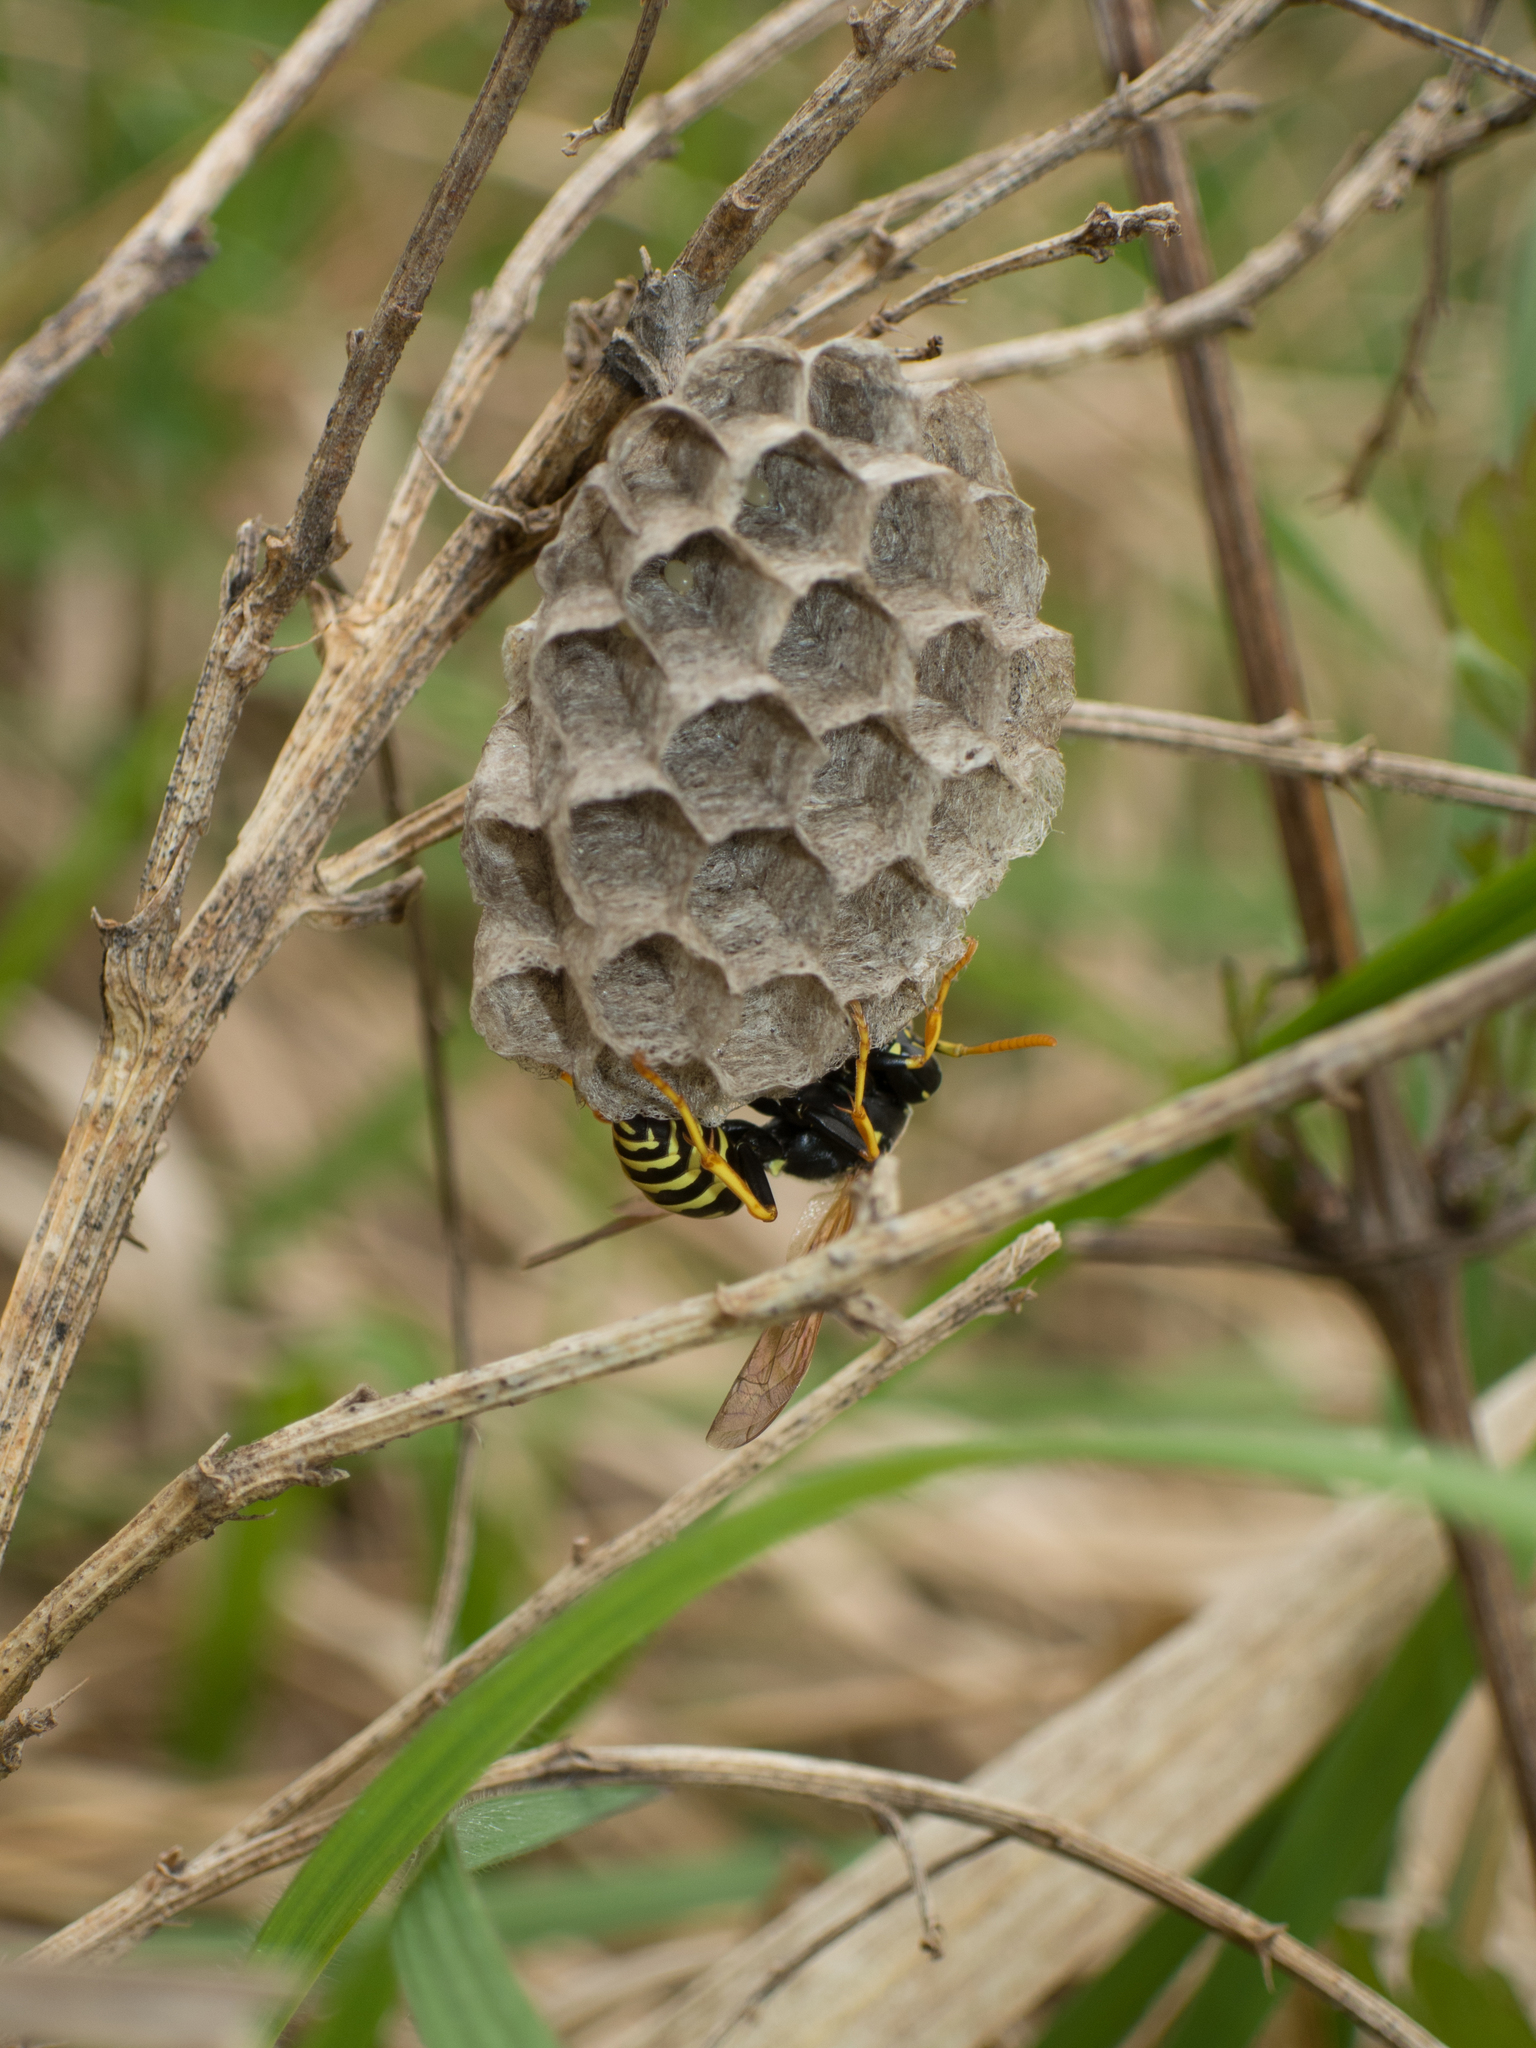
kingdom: Animalia
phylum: Arthropoda
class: Insecta
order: Hymenoptera
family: Eumenidae
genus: Polistes
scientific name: Polistes dominula
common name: Paper wasp
